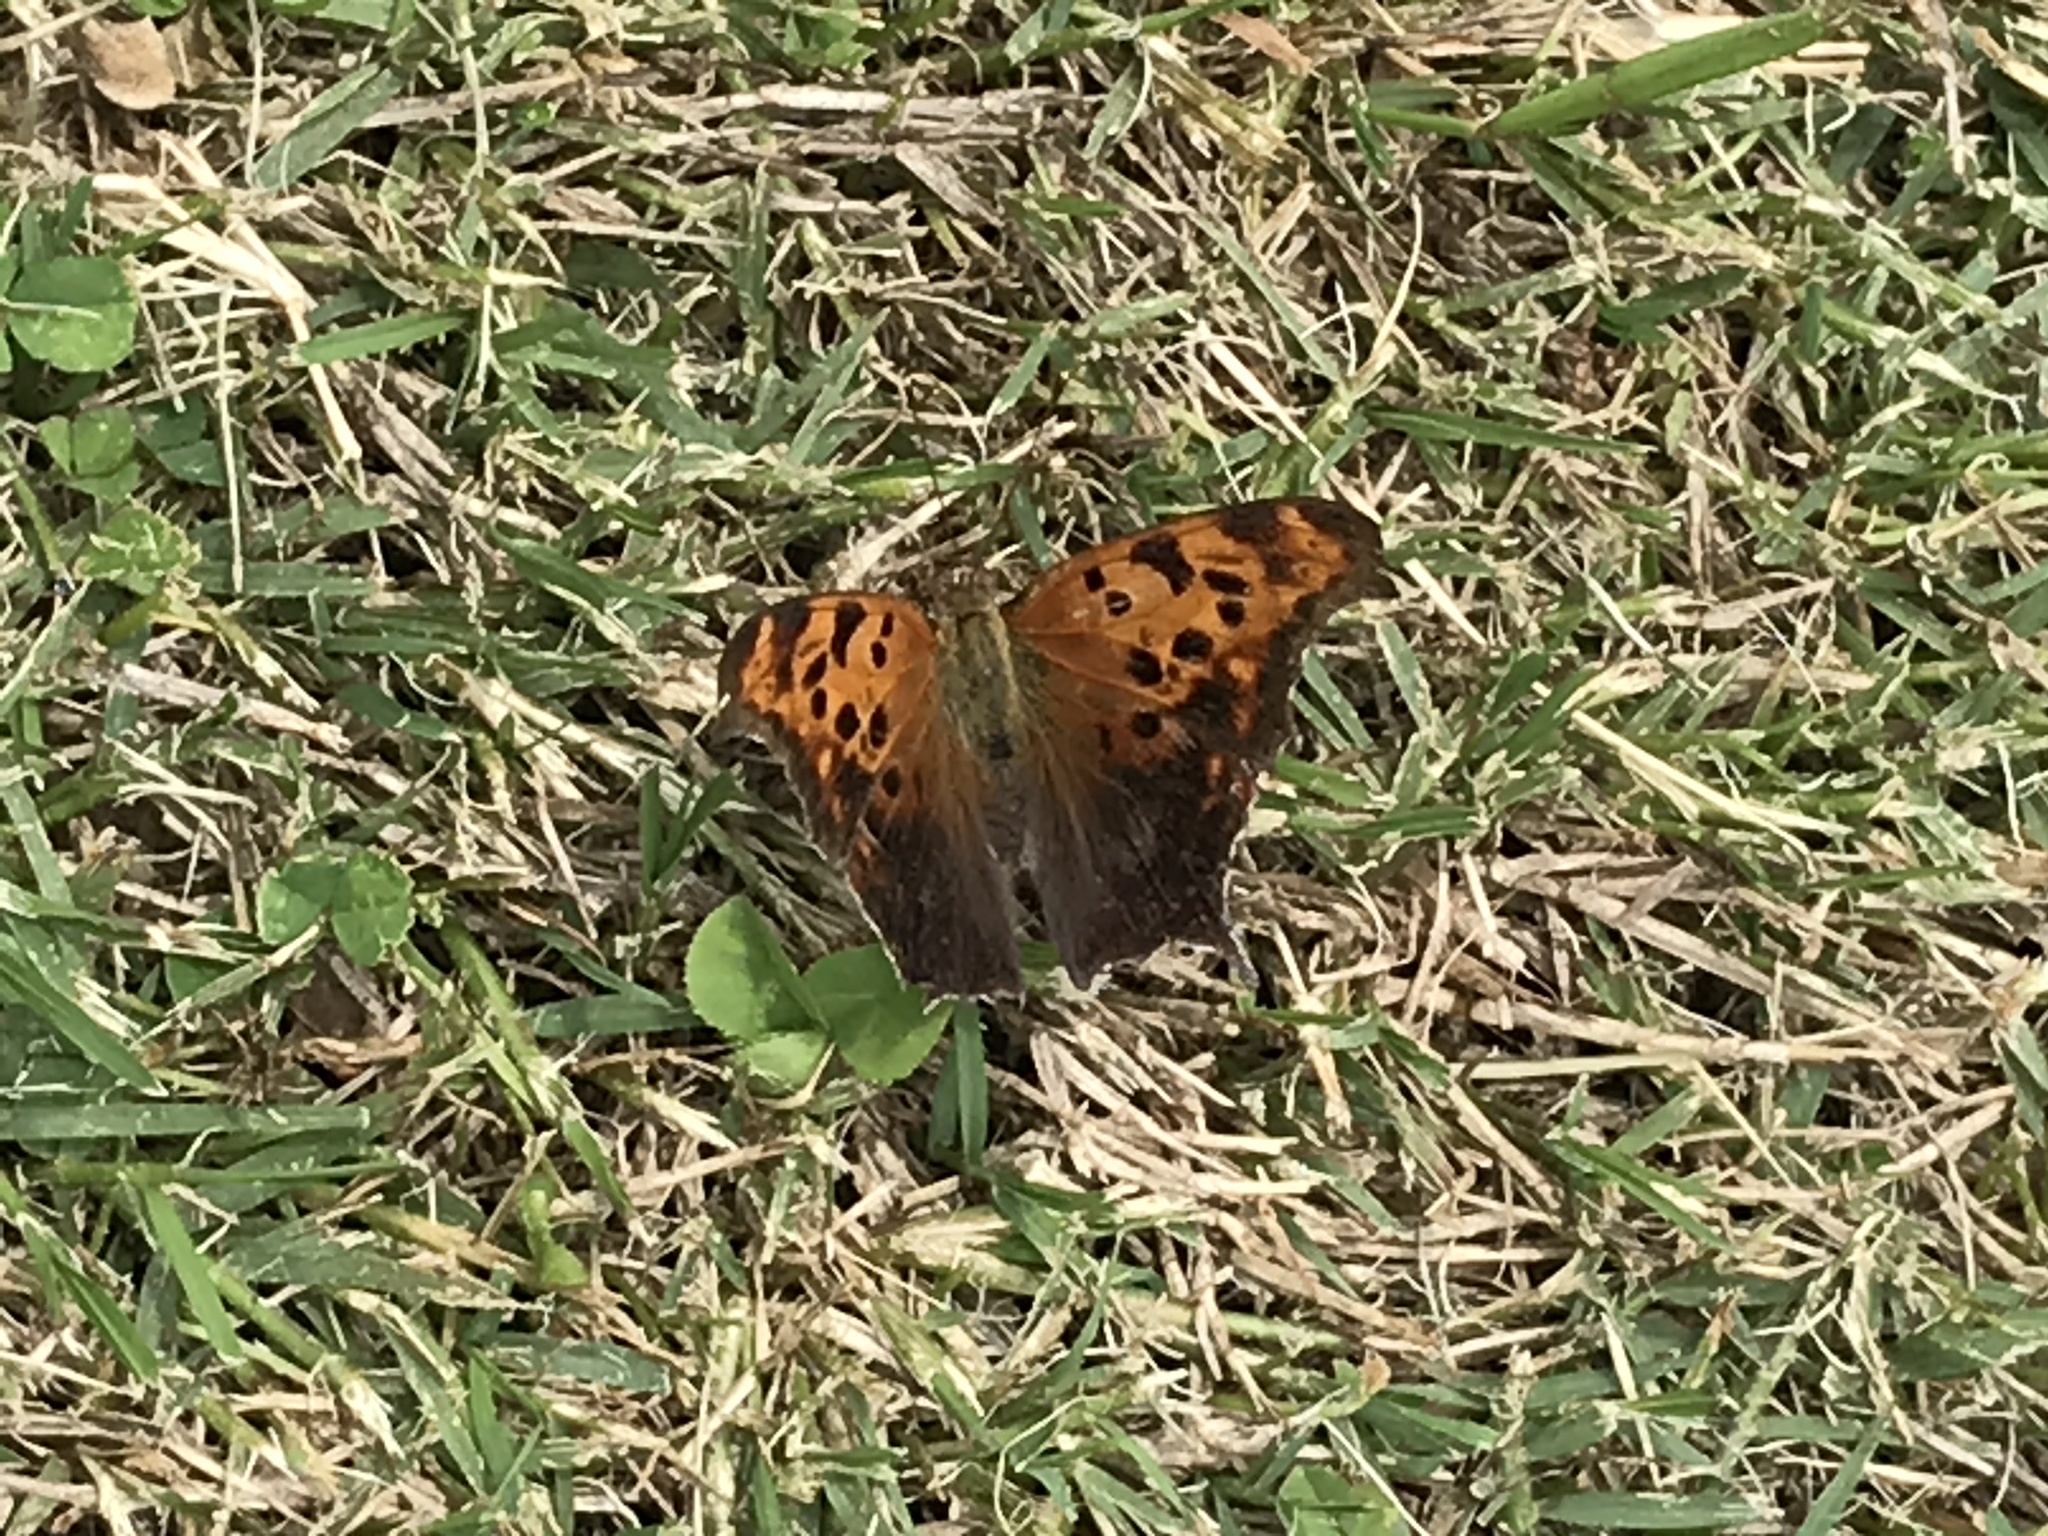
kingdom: Animalia
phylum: Arthropoda
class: Insecta
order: Lepidoptera
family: Nymphalidae
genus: Polygonia
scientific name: Polygonia interrogationis
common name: Question mark
